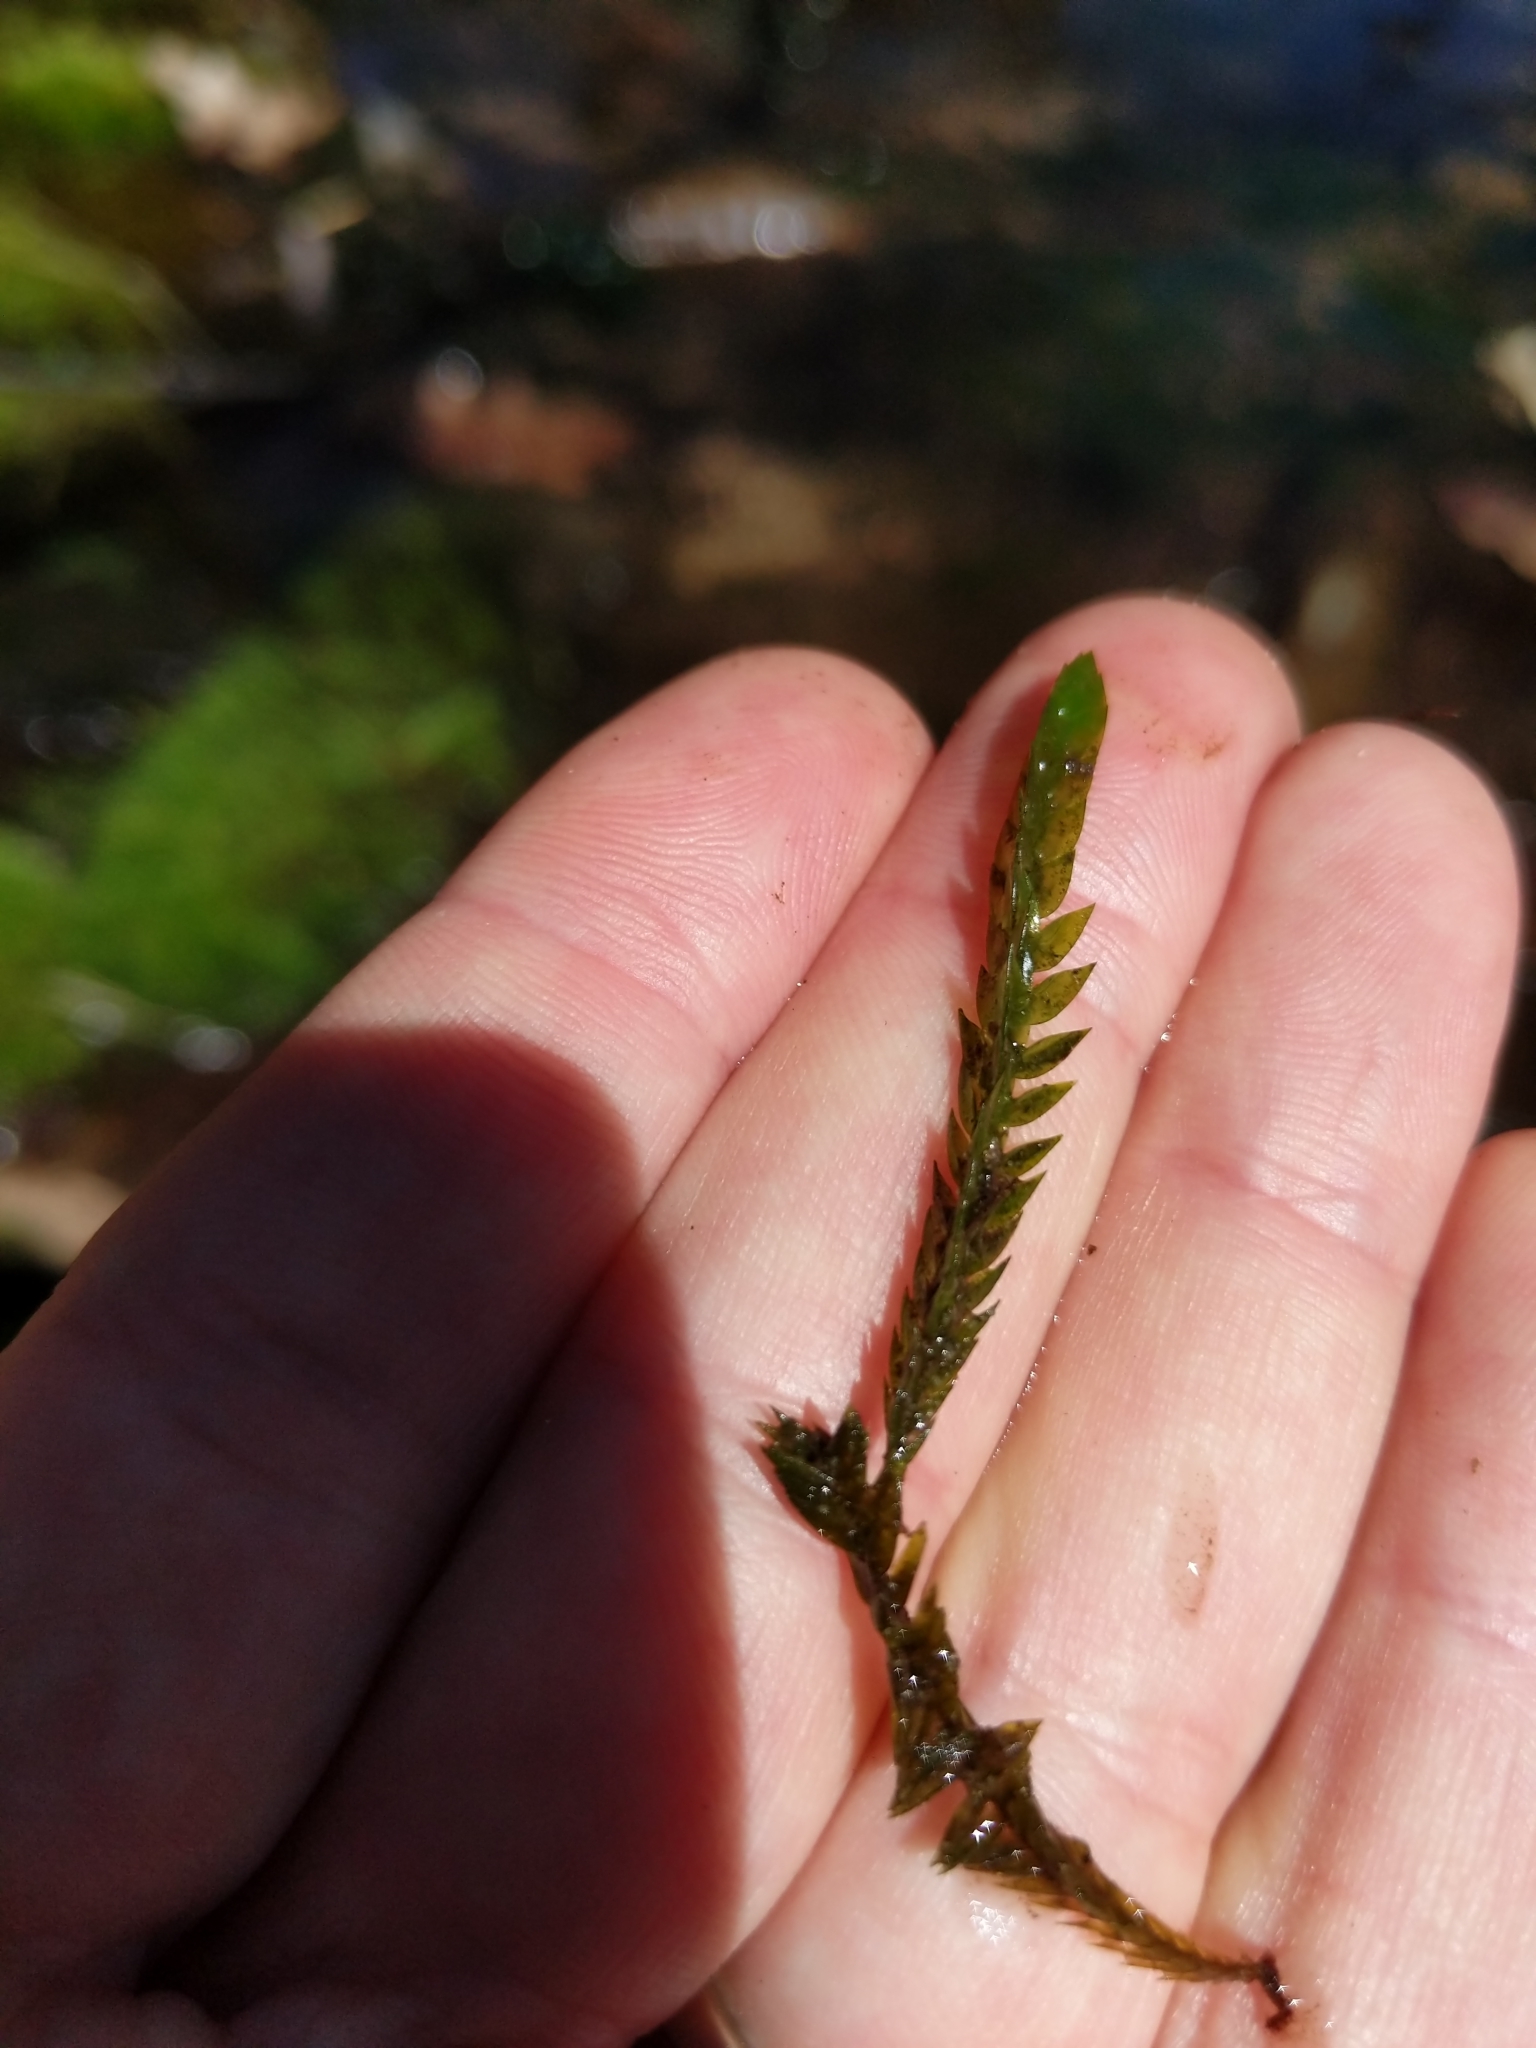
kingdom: Plantae
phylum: Bryophyta
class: Bryopsida
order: Hypnales
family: Fontinalaceae
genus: Fontinalis
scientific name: Fontinalis antipyretica
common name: Greater water-moss
